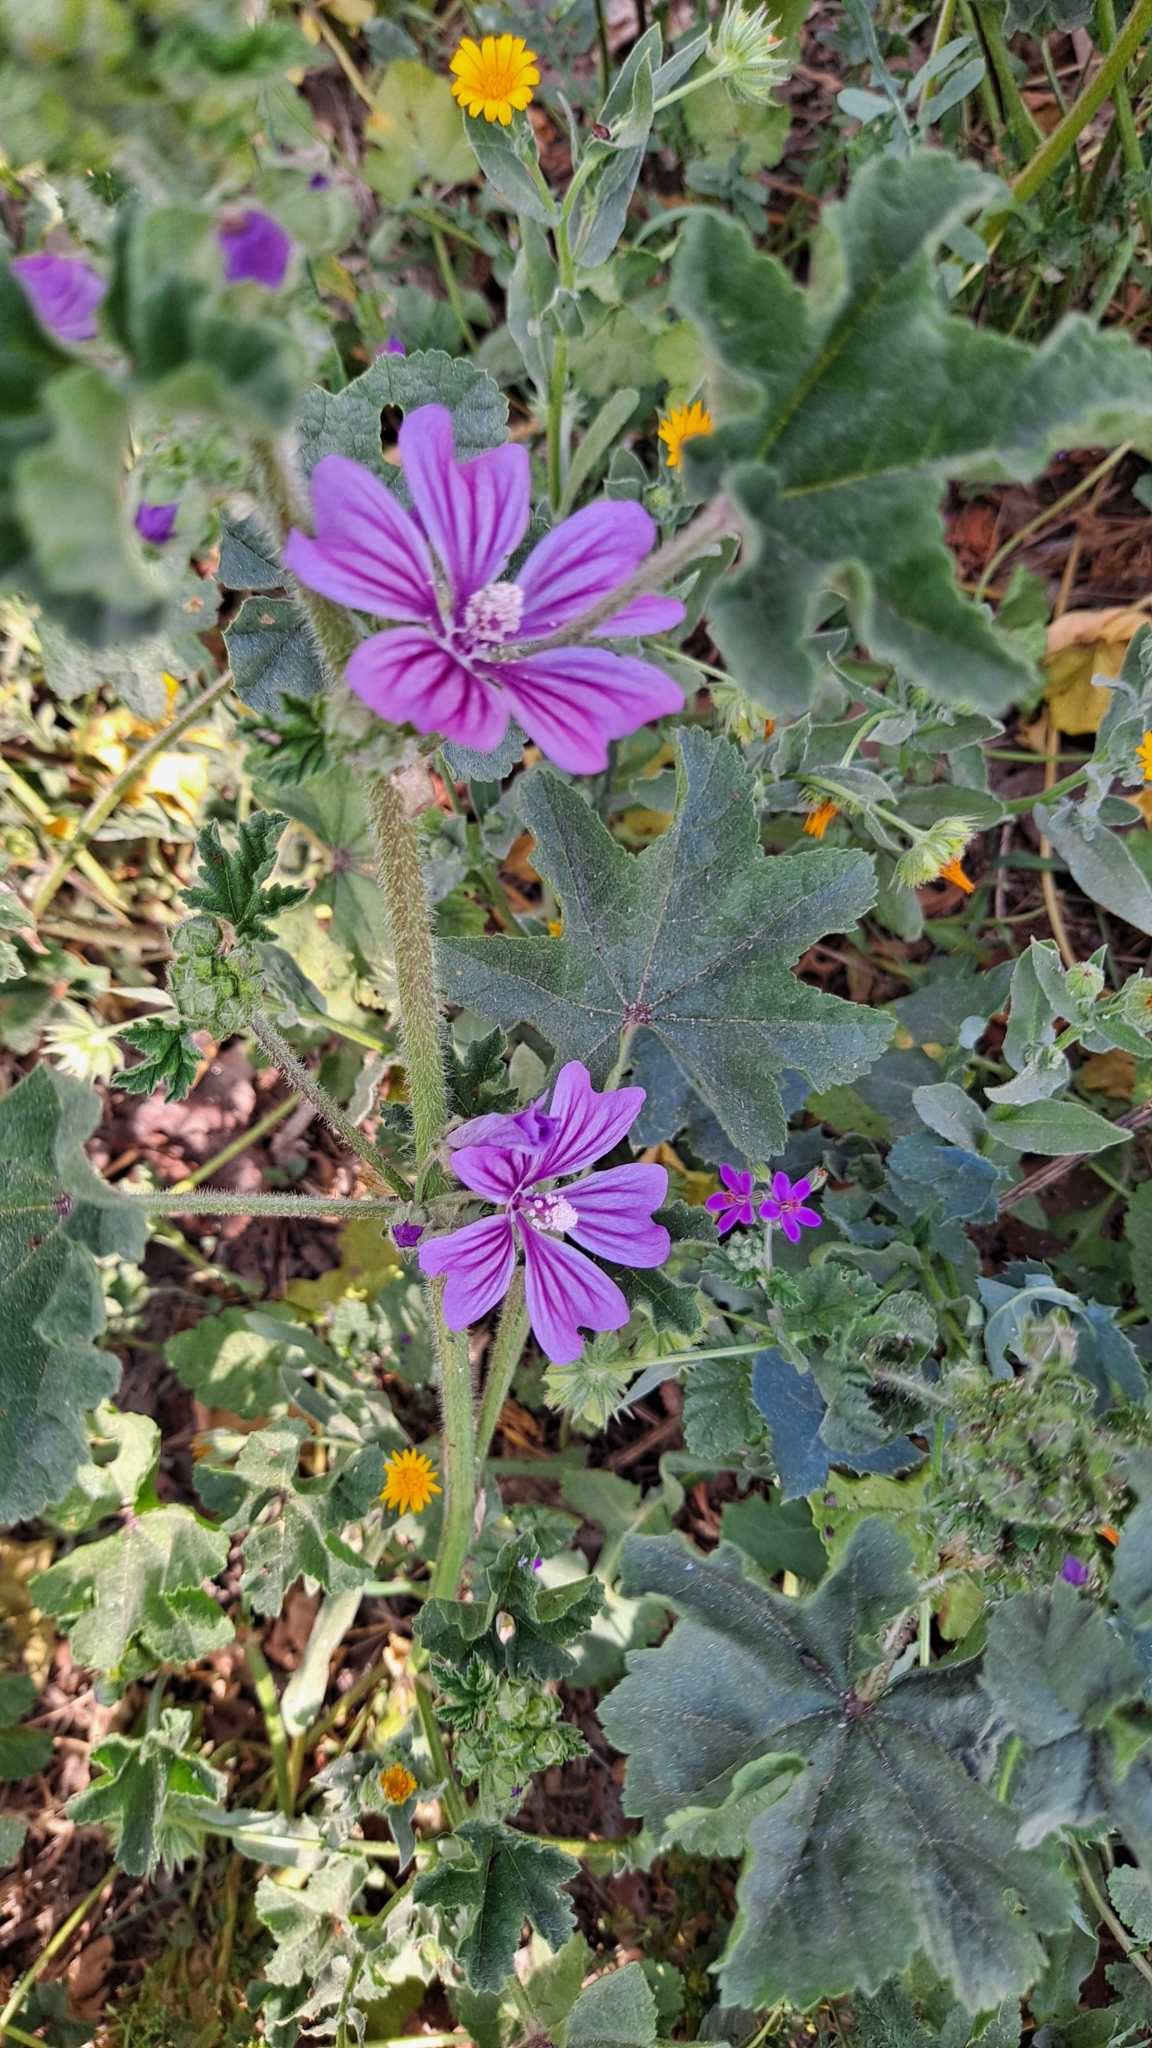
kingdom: Plantae
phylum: Tracheophyta
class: Magnoliopsida
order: Malvales
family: Malvaceae
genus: Malva
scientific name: Malva sylvestris
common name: Common mallow
